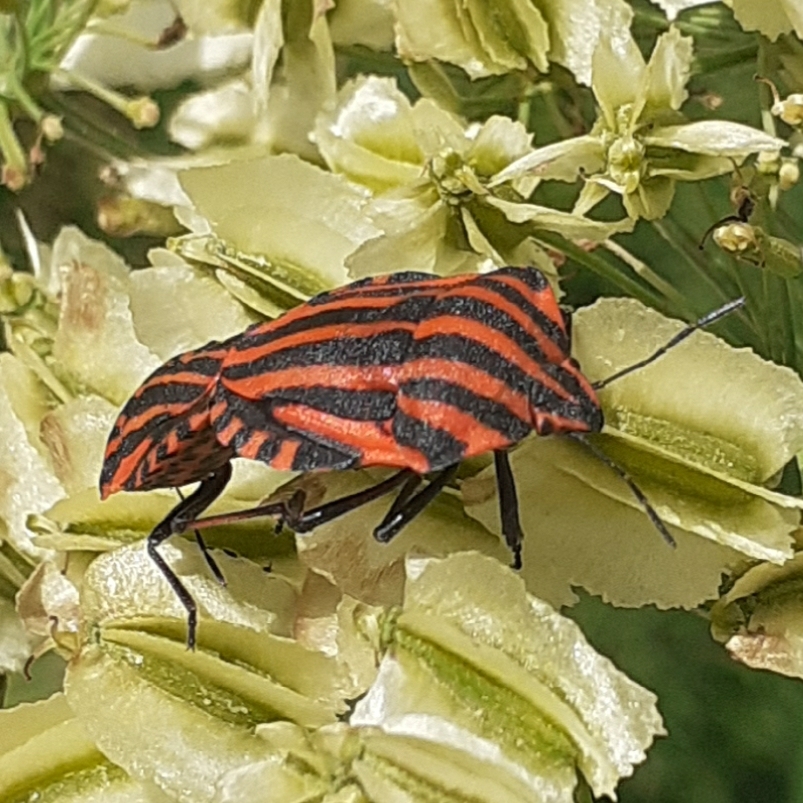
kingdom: Animalia
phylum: Arthropoda
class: Insecta
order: Hemiptera
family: Pentatomidae
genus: Graphosoma
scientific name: Graphosoma italicum
